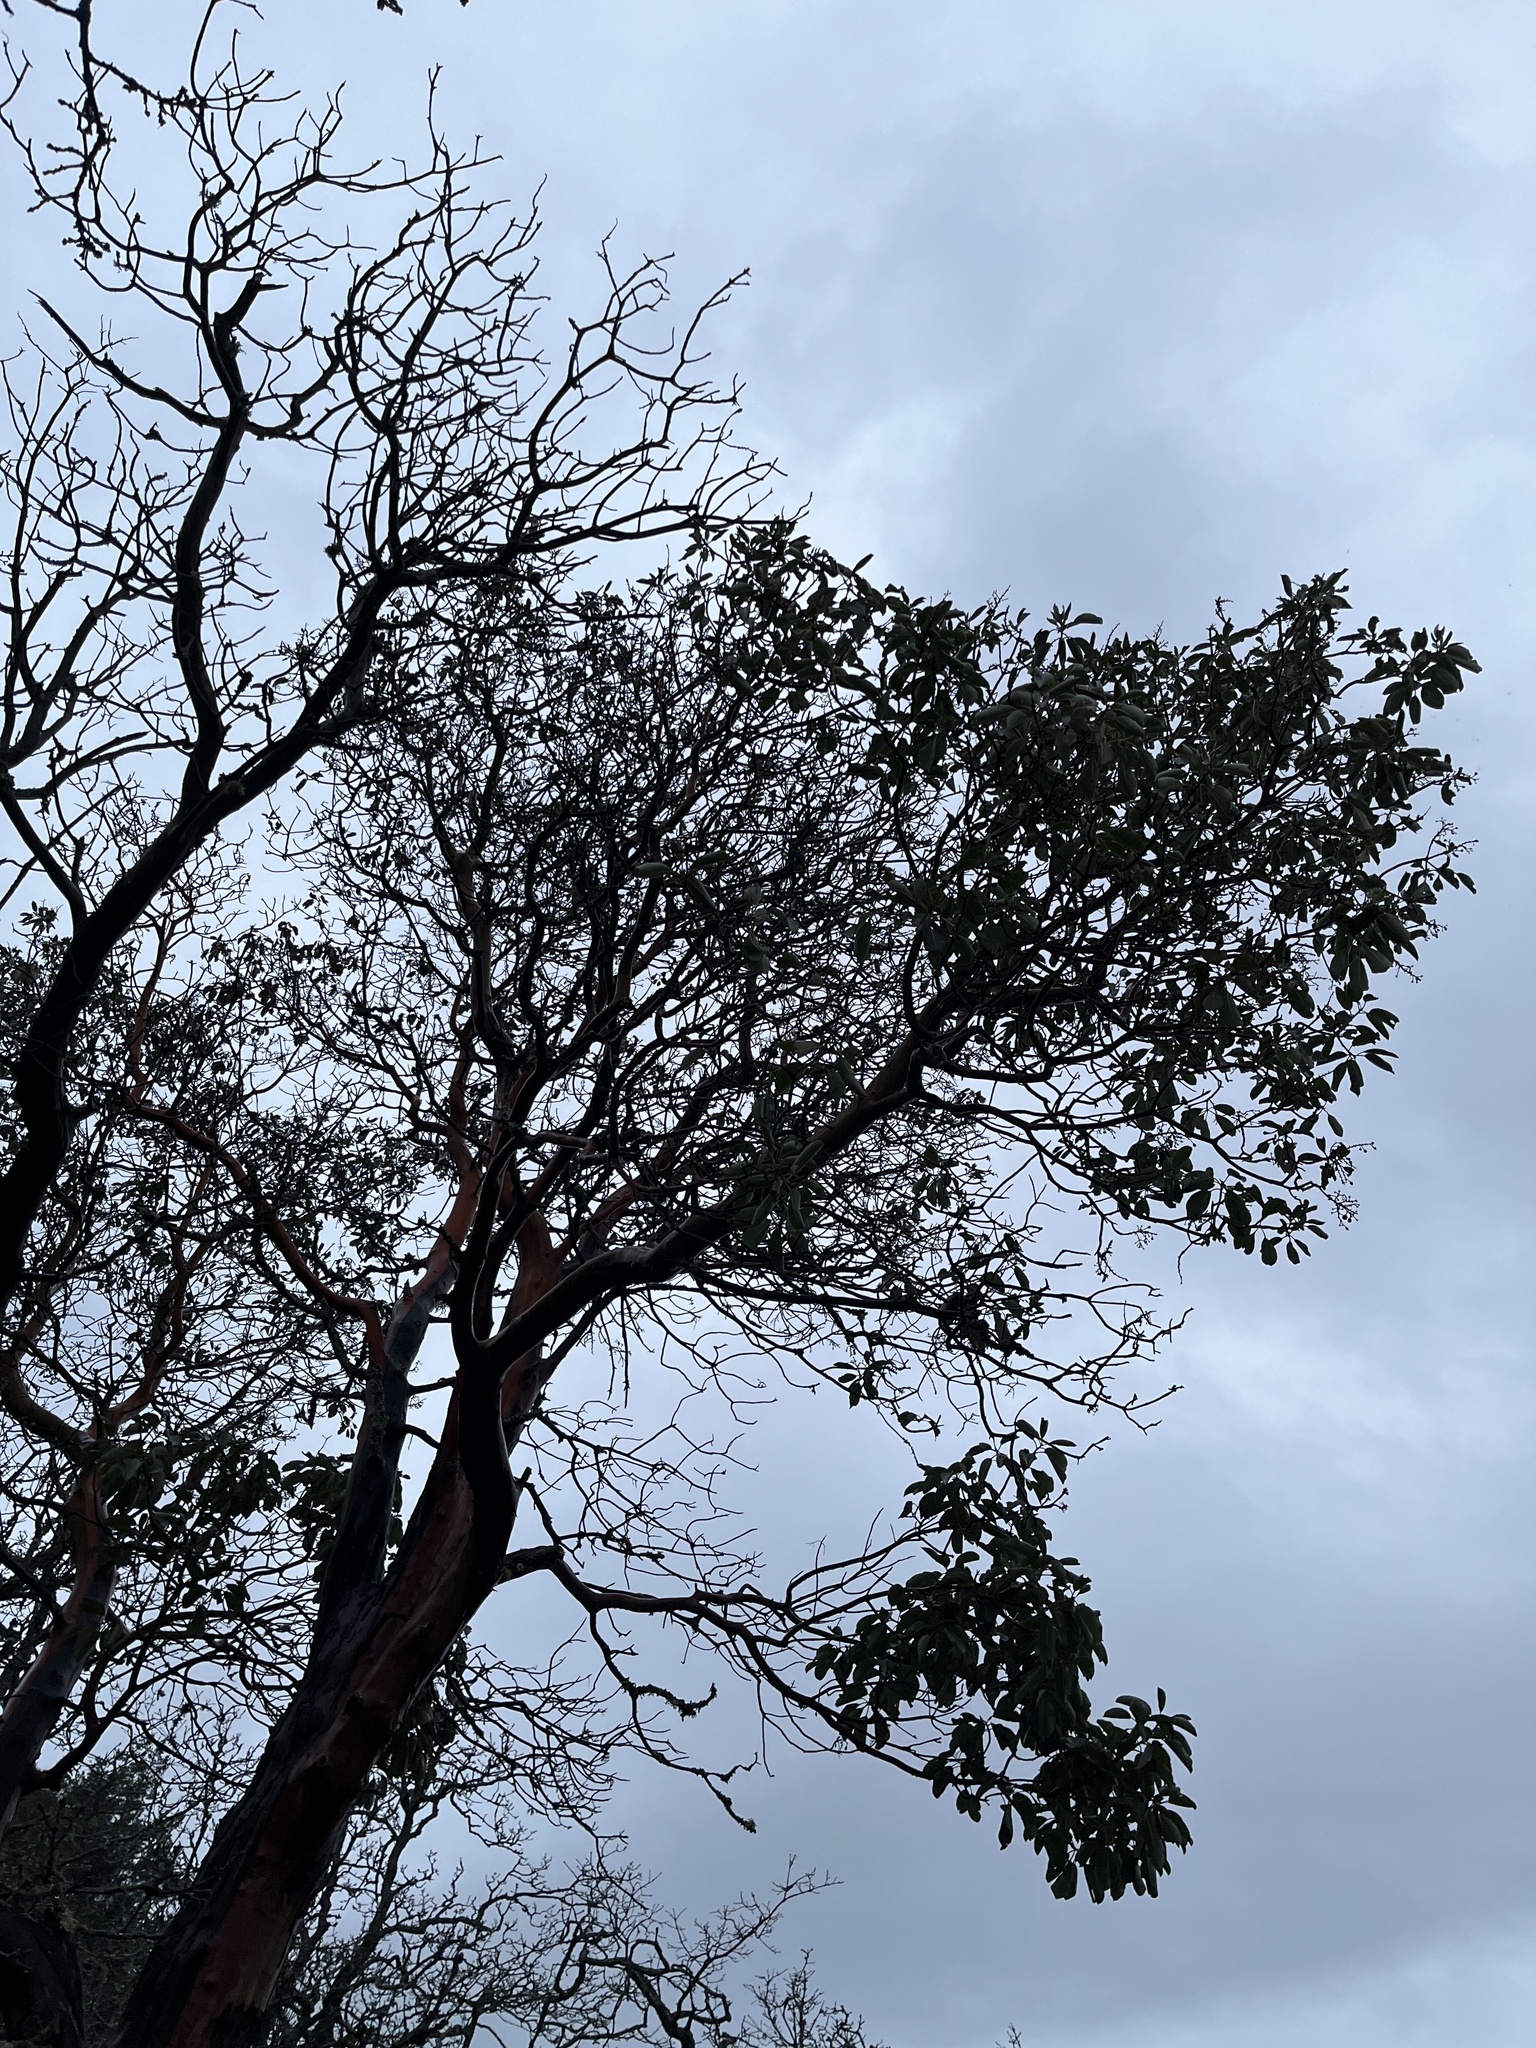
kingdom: Plantae
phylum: Tracheophyta
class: Magnoliopsida
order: Ericales
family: Ericaceae
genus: Arbutus
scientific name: Arbutus menziesii
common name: Pacific madrone
